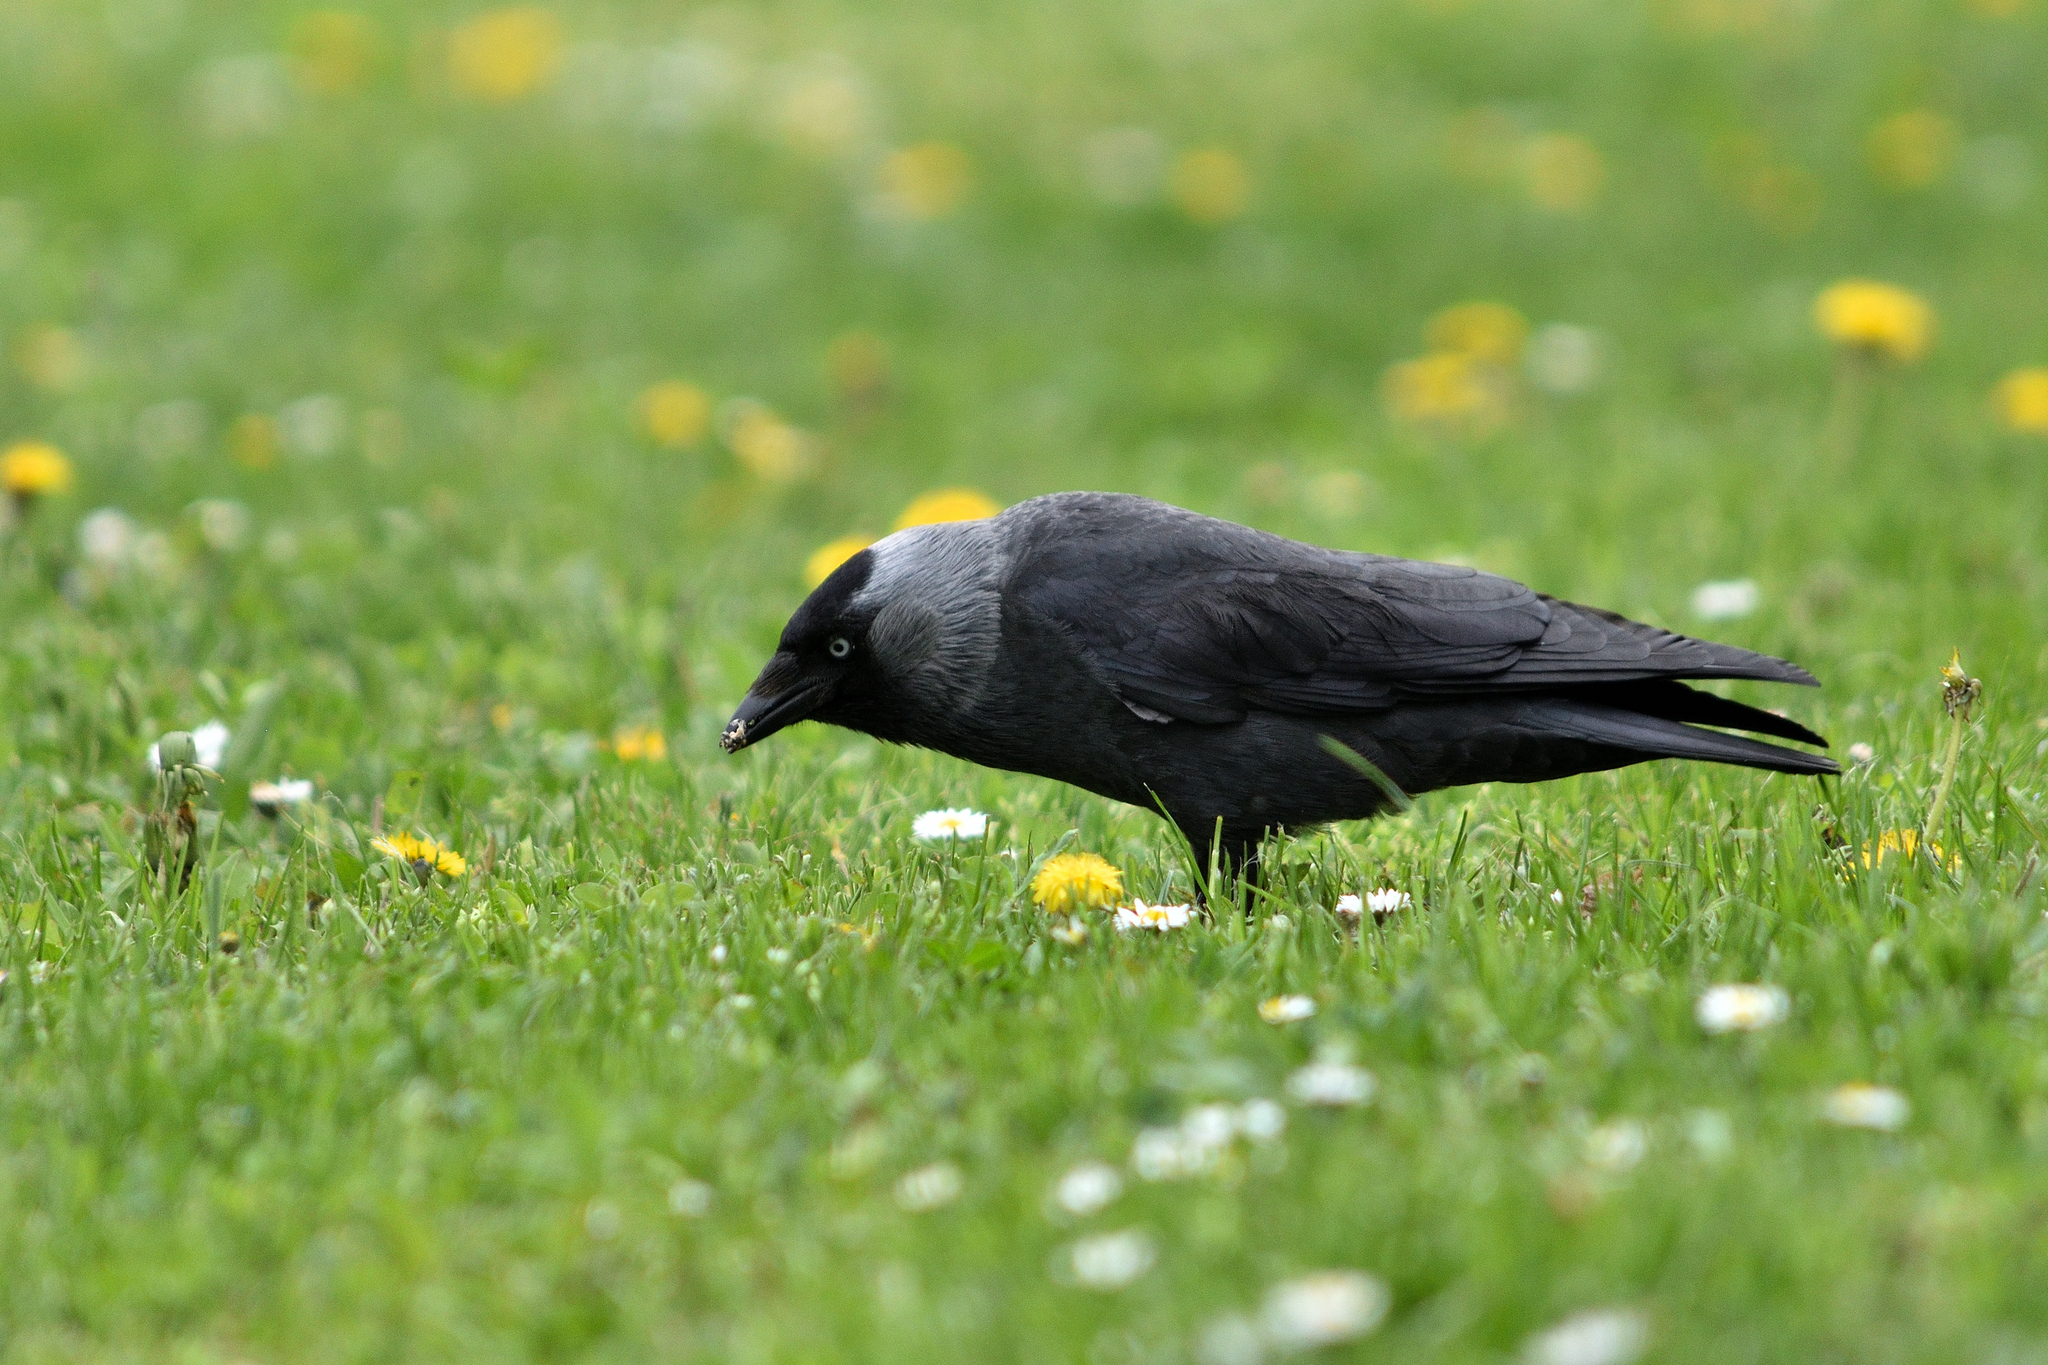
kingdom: Animalia
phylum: Chordata
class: Aves
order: Passeriformes
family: Corvidae
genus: Coloeus
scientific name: Coloeus monedula
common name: Western jackdaw
